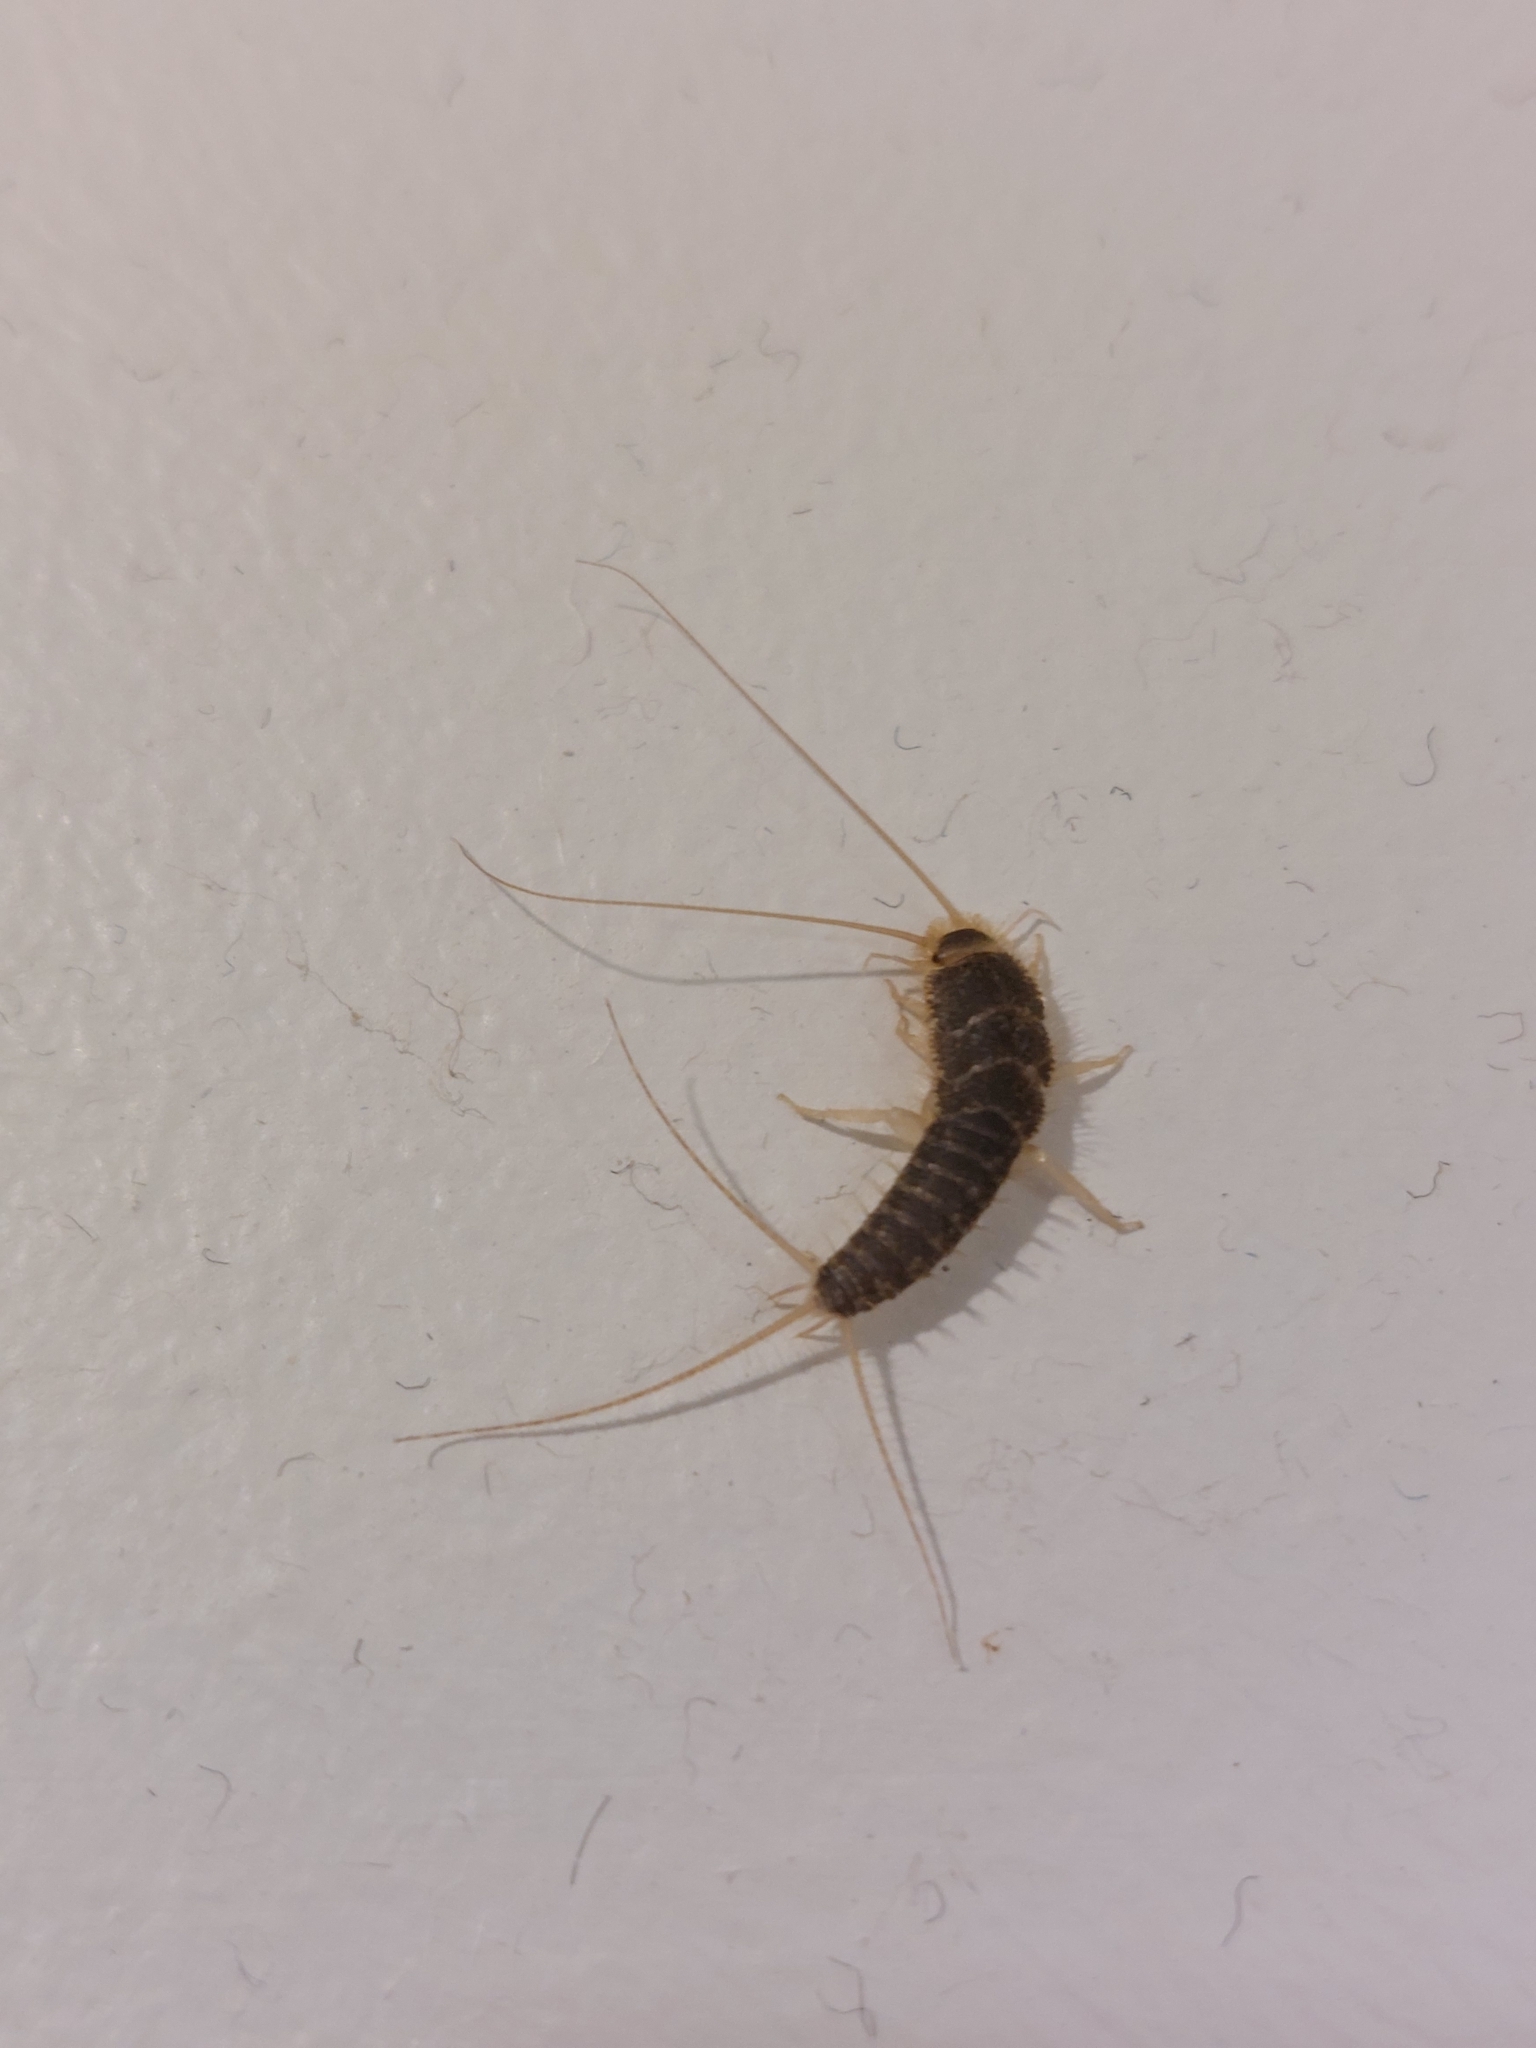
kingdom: Animalia
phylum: Arthropoda
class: Insecta
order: Zygentoma
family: Lepismatidae
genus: Ctenolepisma
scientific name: Ctenolepisma longicaudatum
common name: Silverfish
